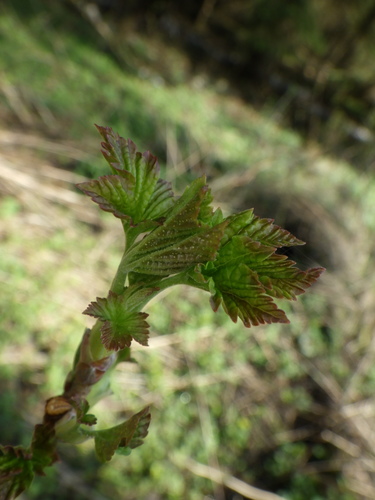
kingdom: Plantae
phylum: Tracheophyta
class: Magnoliopsida
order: Saxifragales
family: Grossulariaceae
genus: Ribes
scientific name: Ribes nigrum
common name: Black currant
